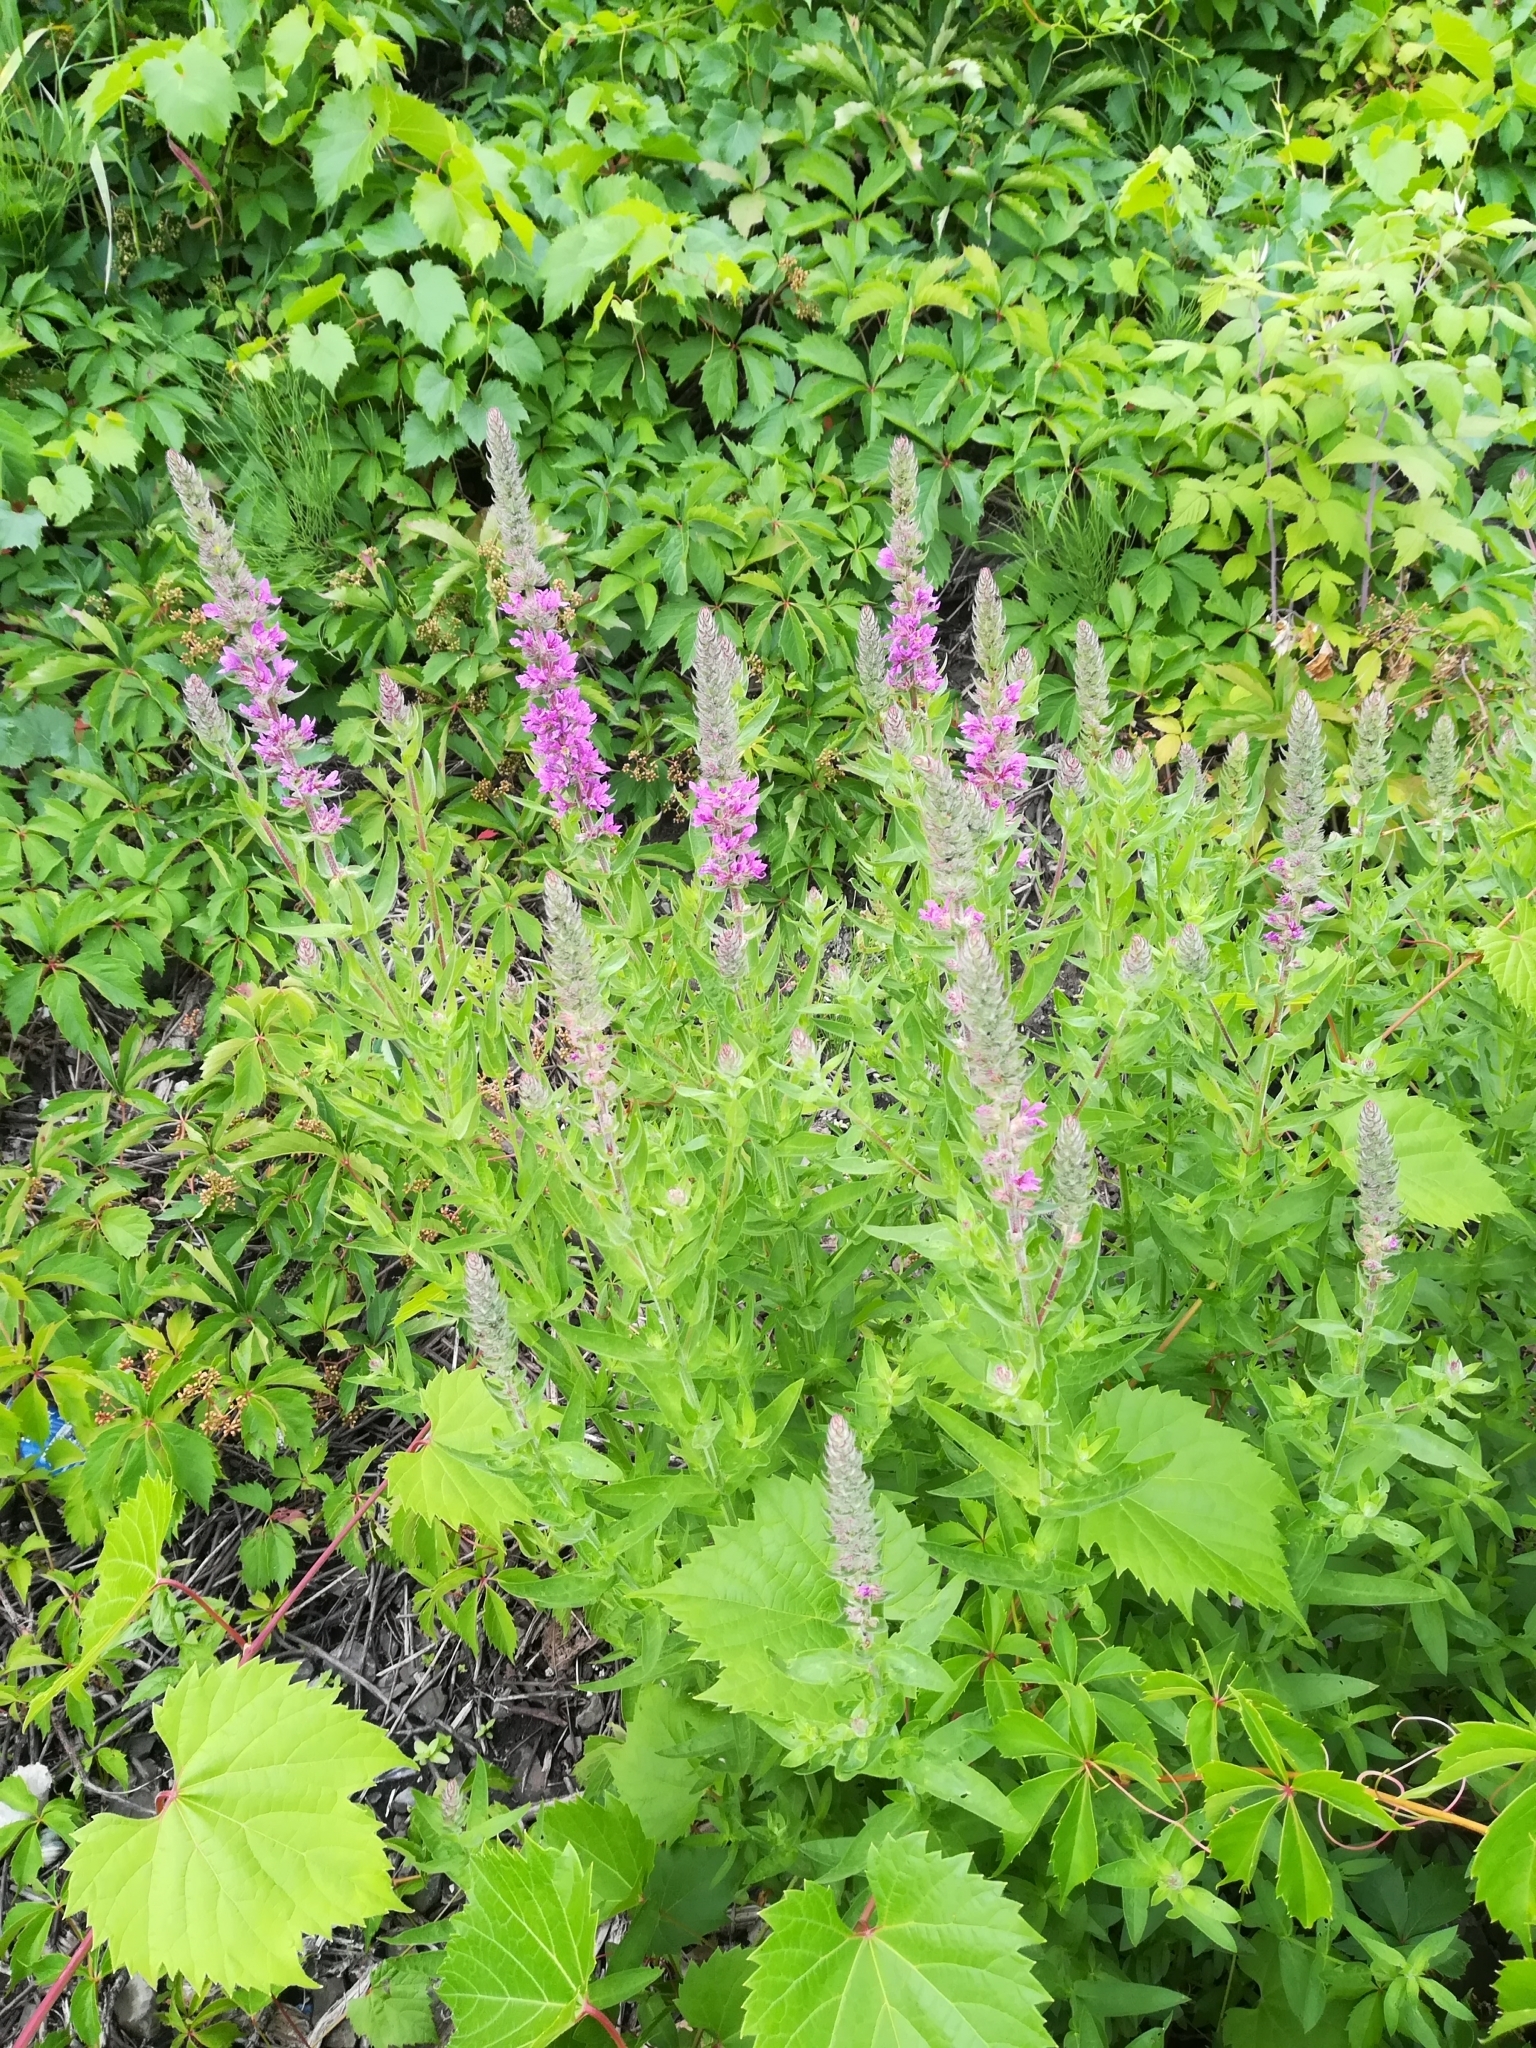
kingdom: Plantae
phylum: Tracheophyta
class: Magnoliopsida
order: Myrtales
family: Lythraceae
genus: Lythrum
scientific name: Lythrum salicaria
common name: Purple loosestrife
